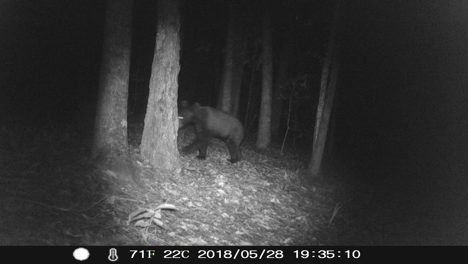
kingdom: Animalia
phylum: Chordata
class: Mammalia
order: Carnivora
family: Ursidae
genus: Ursus
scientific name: Ursus americanus
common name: American black bear
